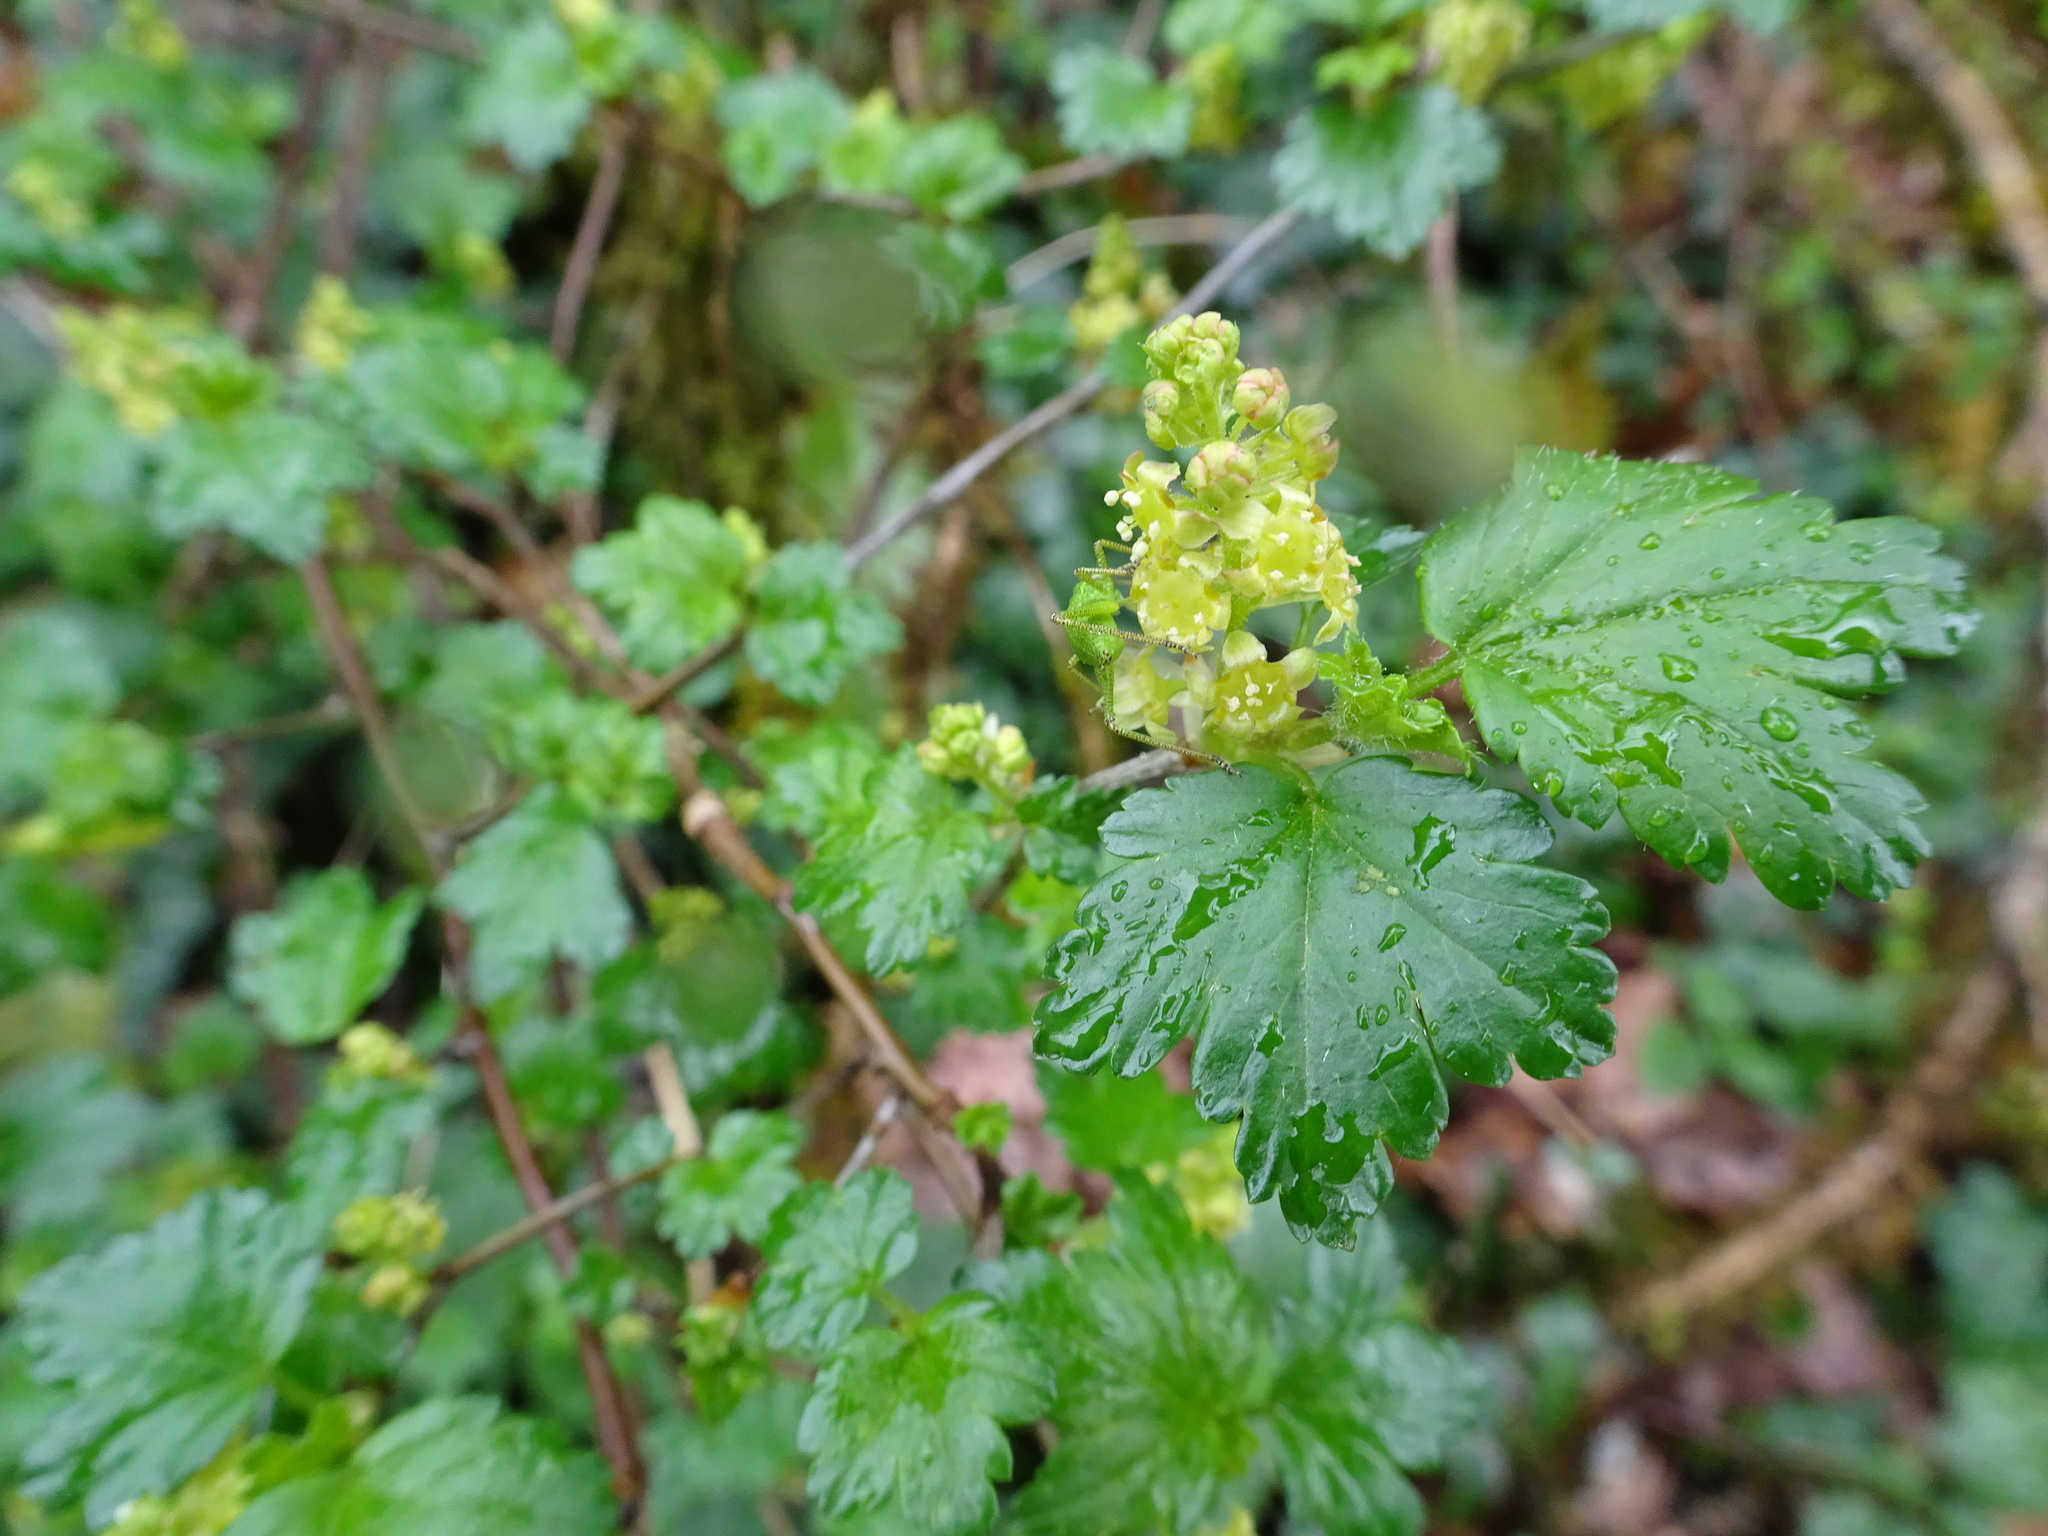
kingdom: Plantae
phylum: Tracheophyta
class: Magnoliopsida
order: Saxifragales
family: Grossulariaceae
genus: Ribes
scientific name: Ribes alpinum
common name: Alpine currant
